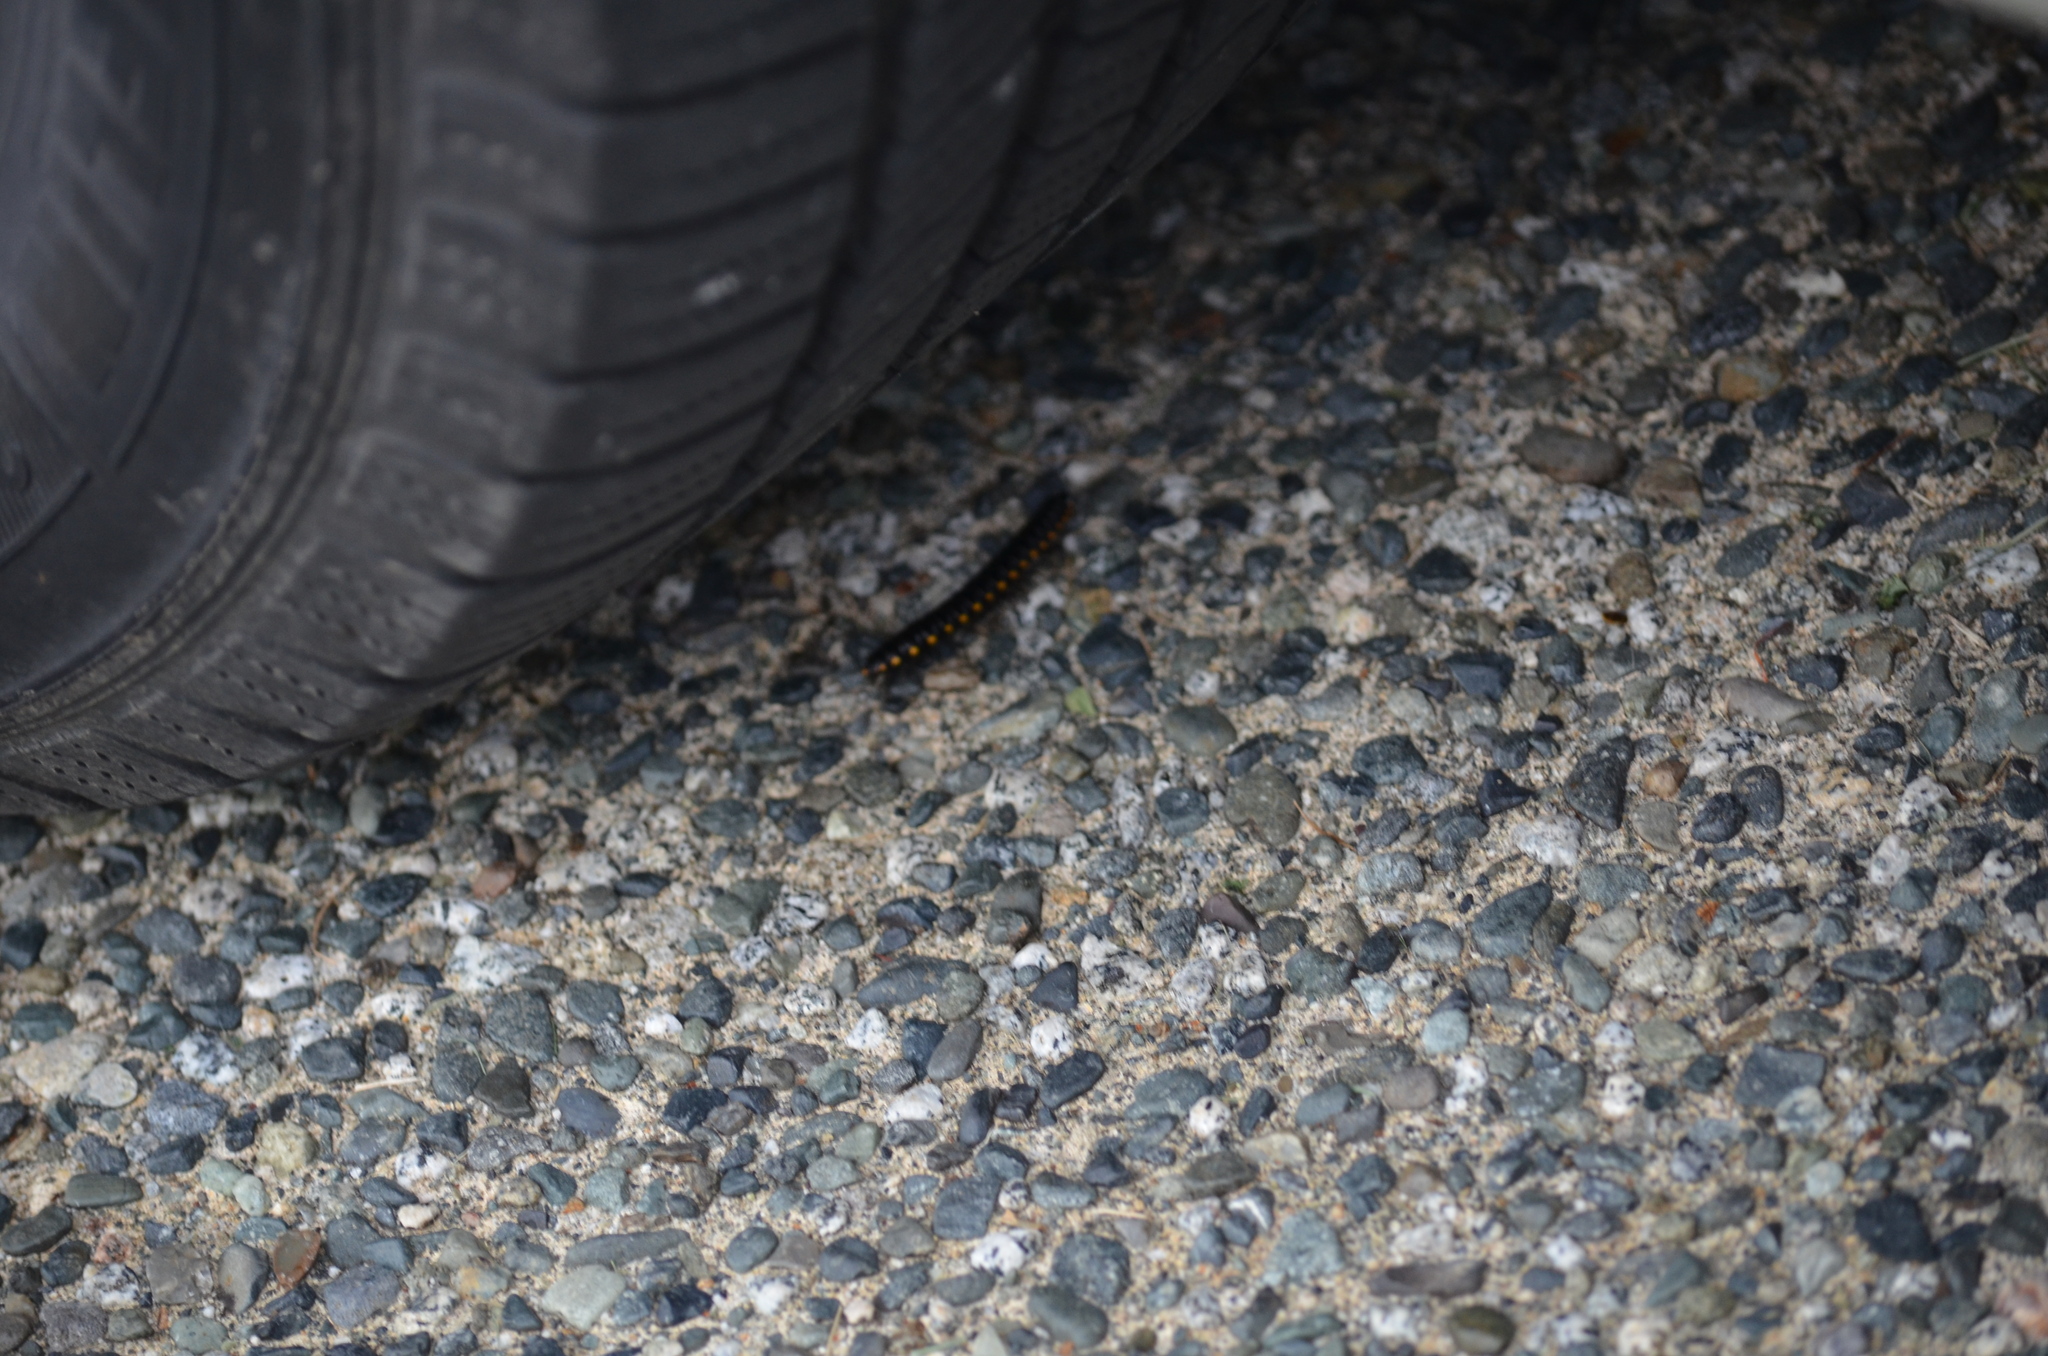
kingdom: Animalia
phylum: Arthropoda
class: Diplopoda
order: Polydesmida
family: Xystodesmidae
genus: Harpaphe
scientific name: Harpaphe haydeniana
